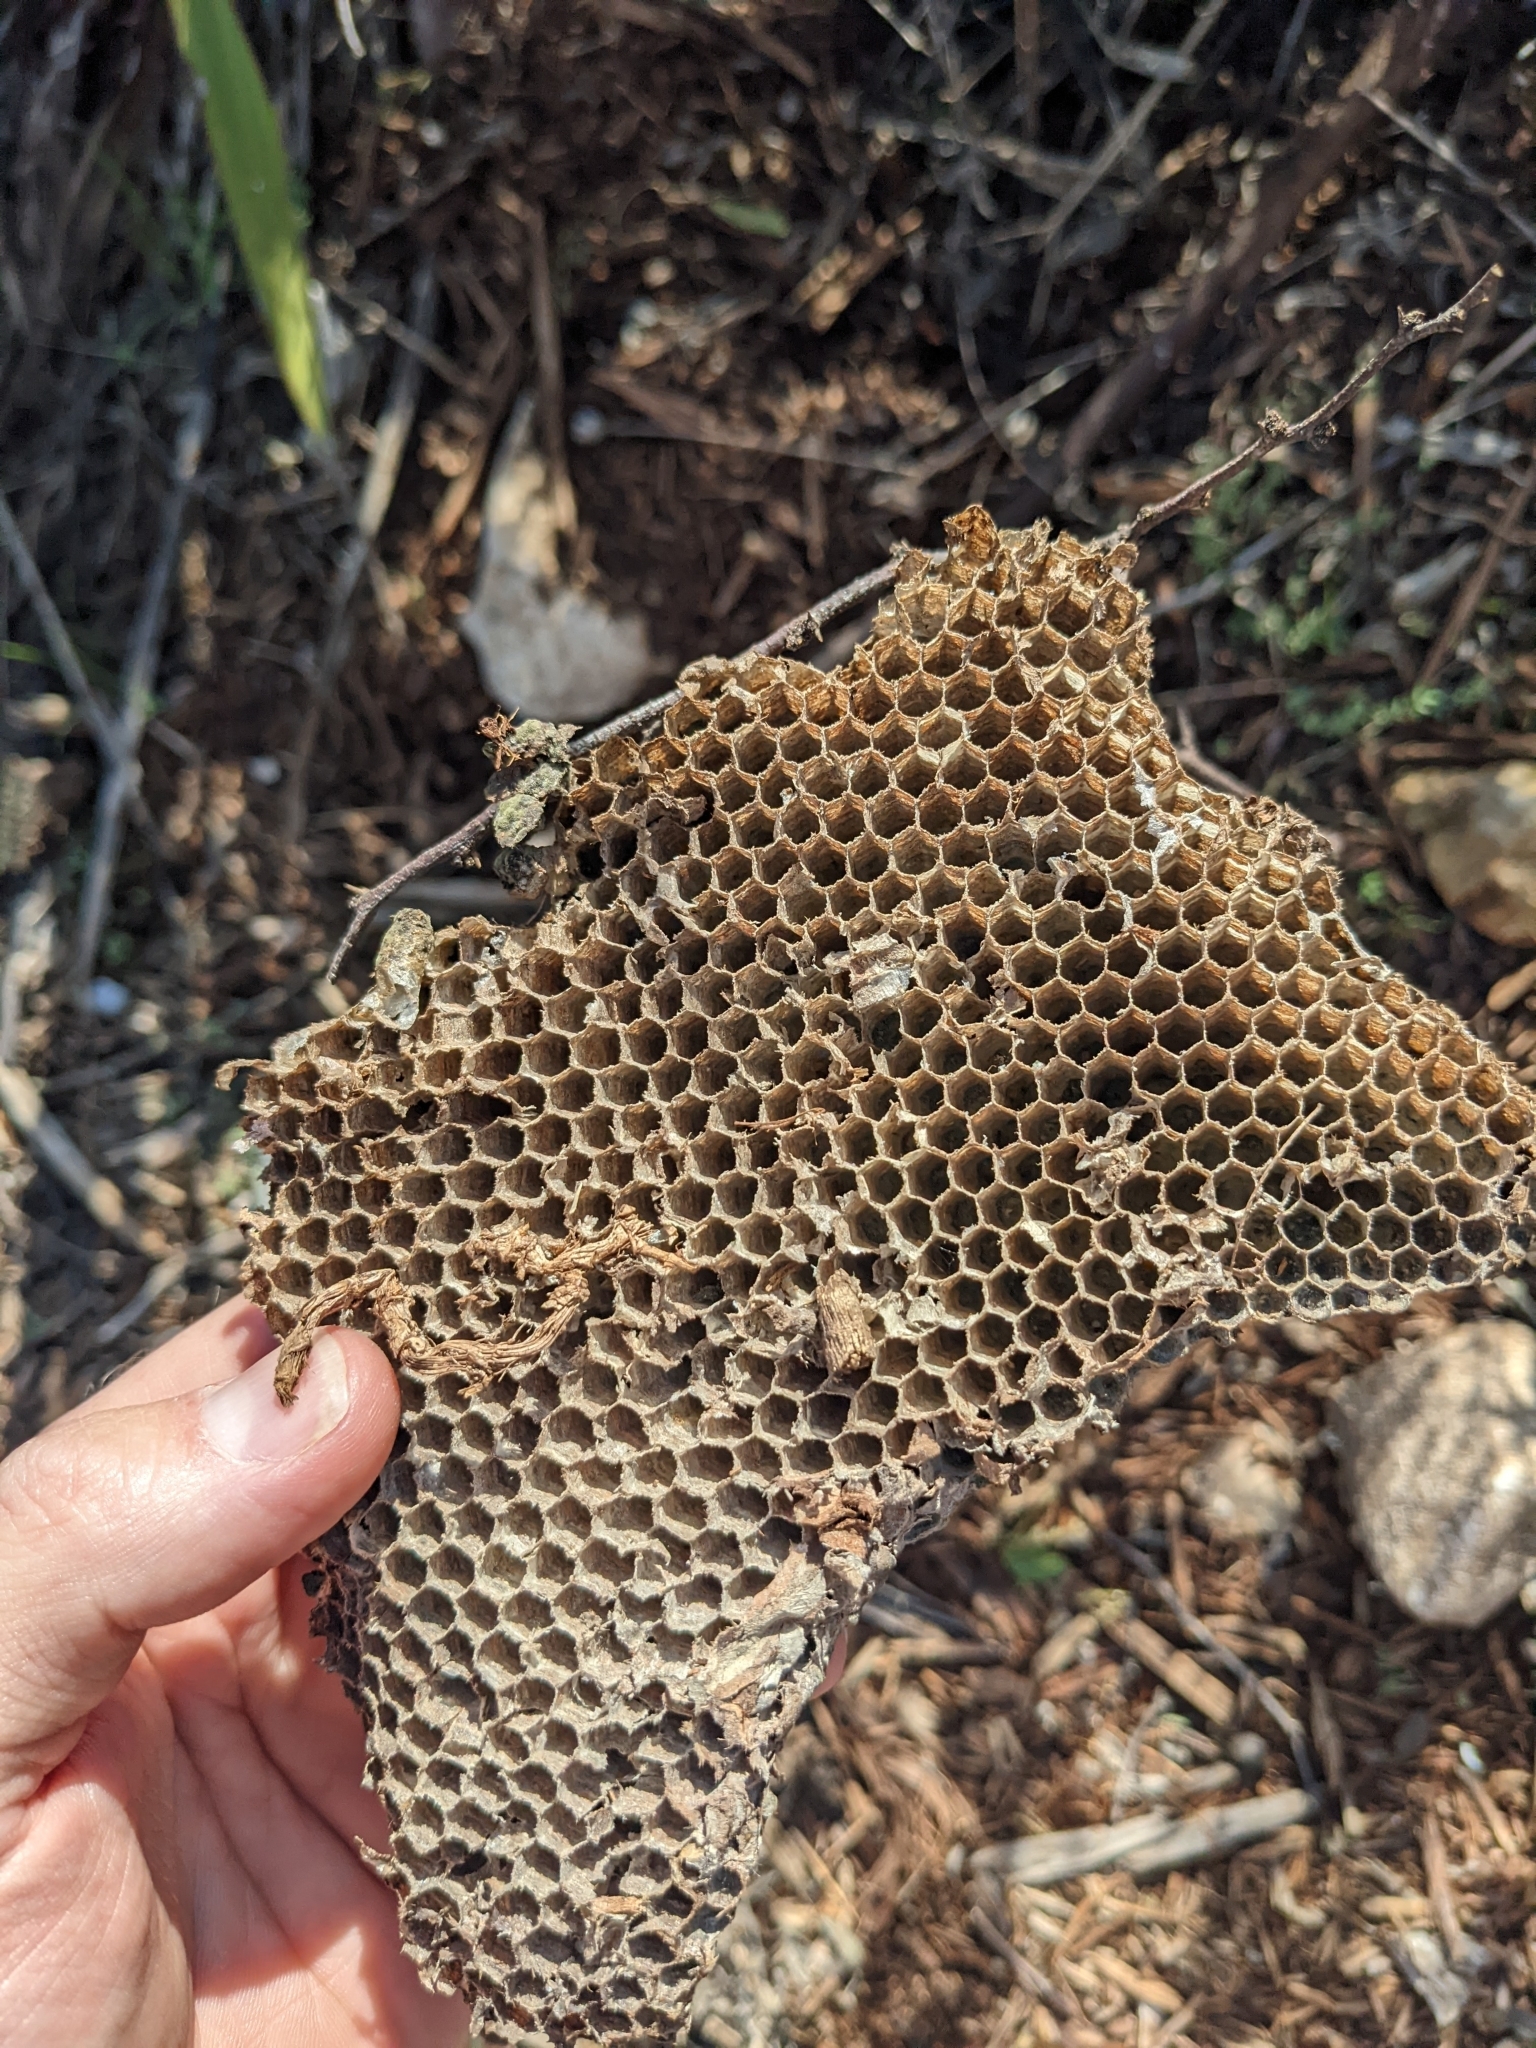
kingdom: Animalia
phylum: Arthropoda
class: Insecta
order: Hymenoptera
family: Vespidae
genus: Vespula
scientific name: Vespula squamosa
